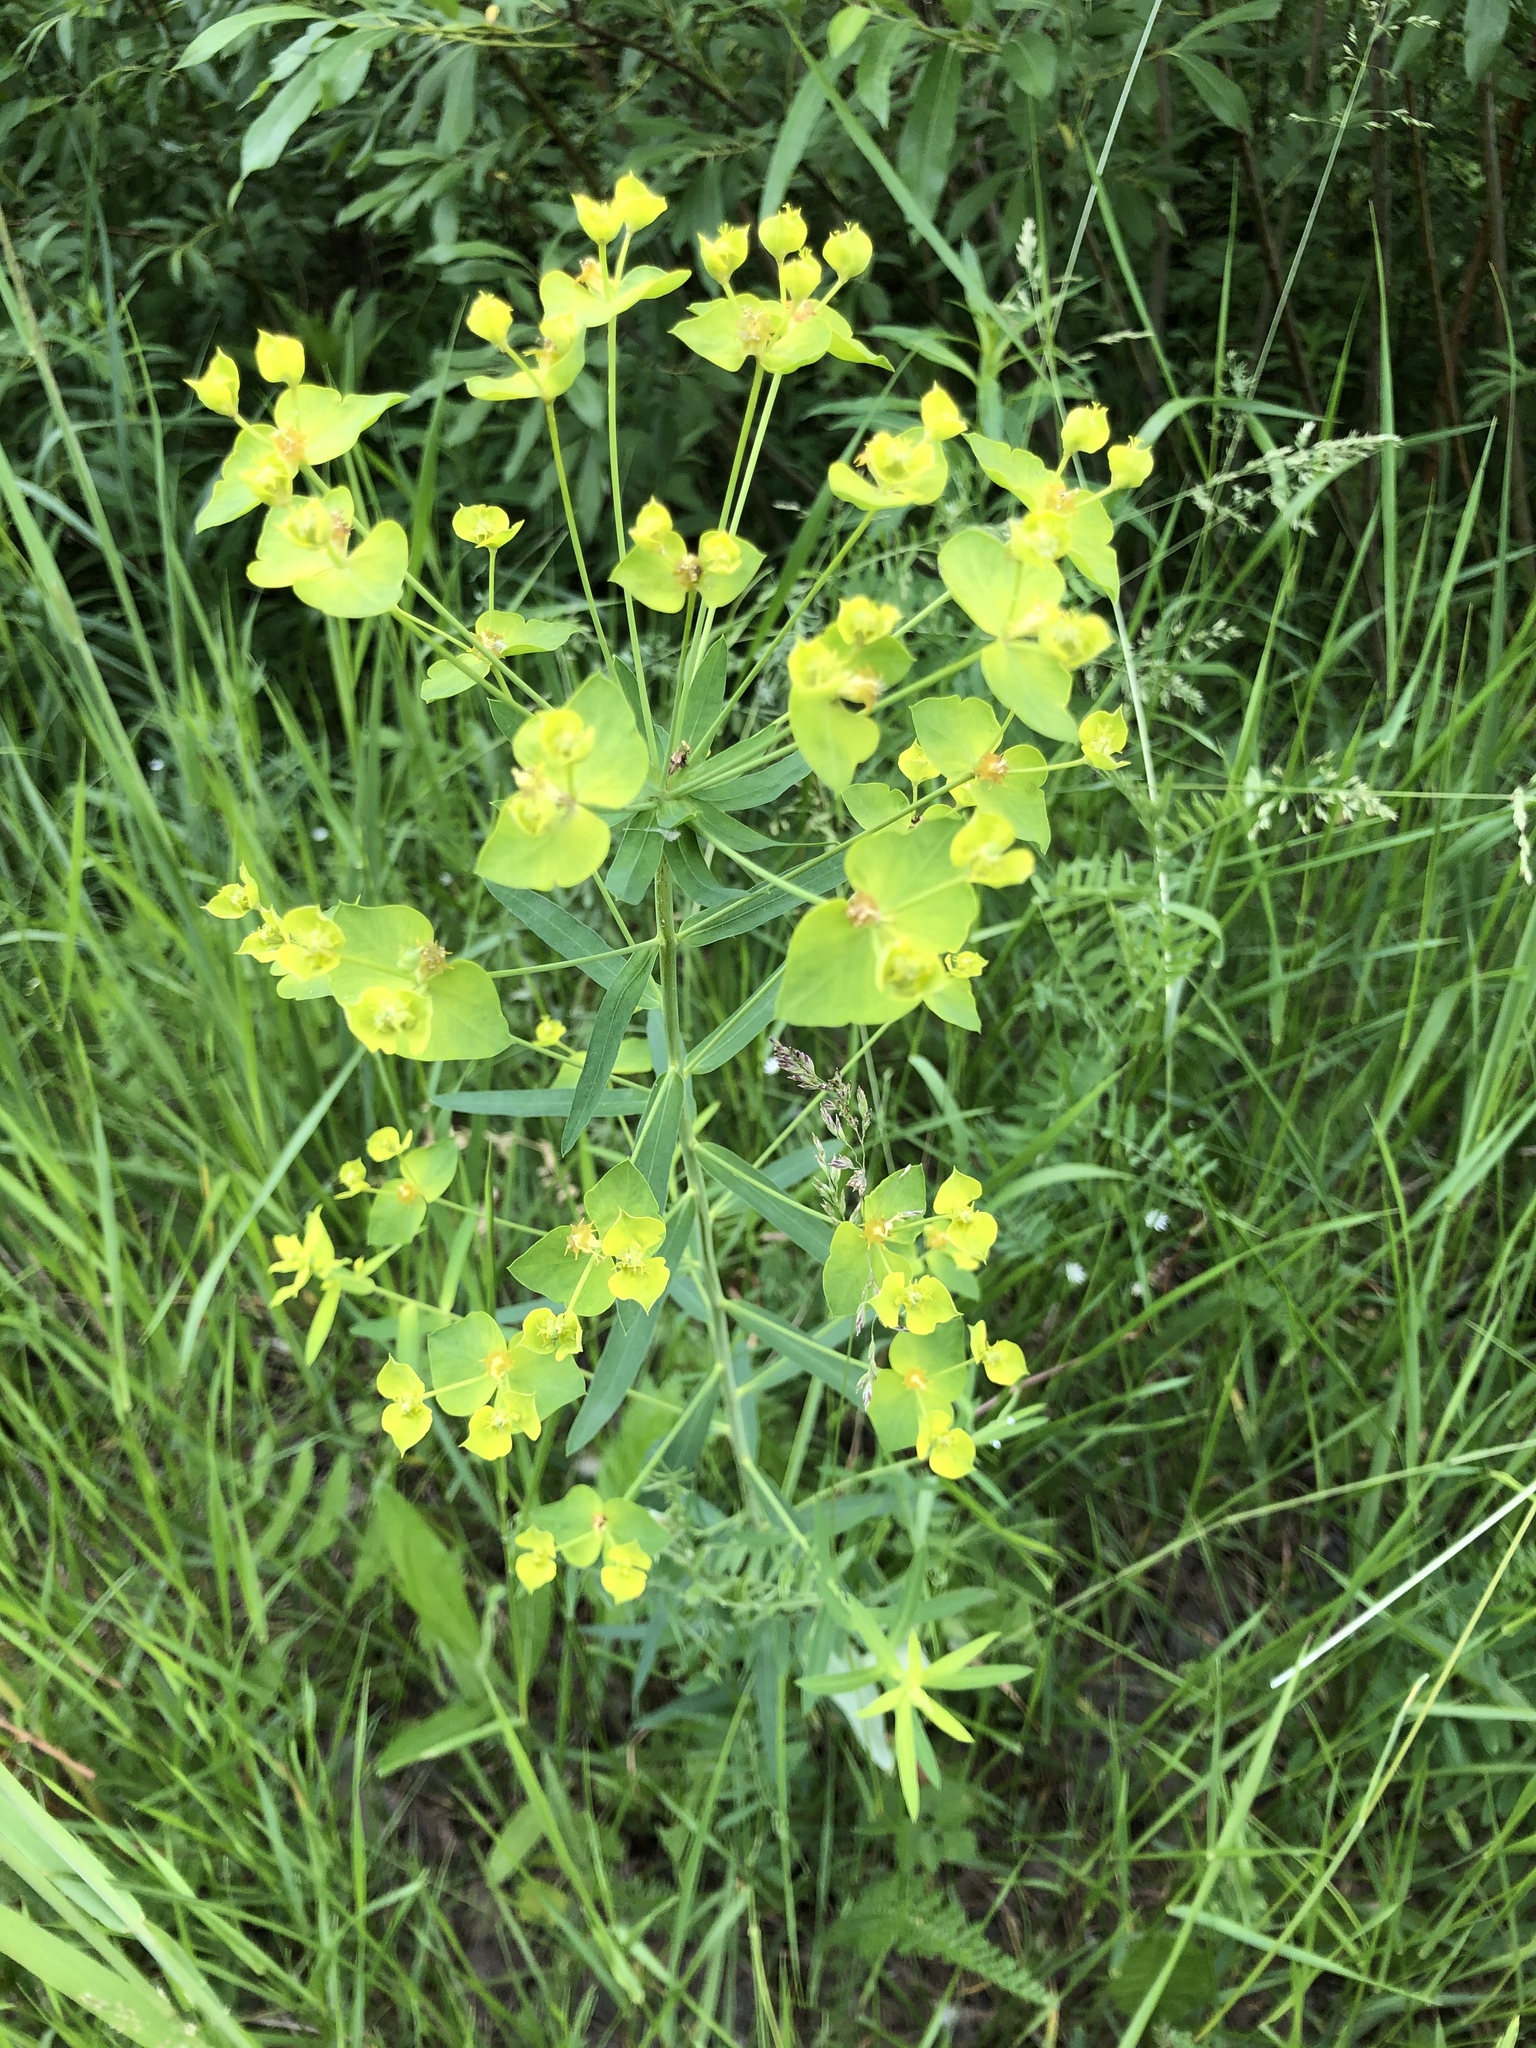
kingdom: Plantae
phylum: Tracheophyta
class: Magnoliopsida
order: Malpighiales
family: Euphorbiaceae
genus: Euphorbia
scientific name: Euphorbia virgata
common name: Leafy spurge
